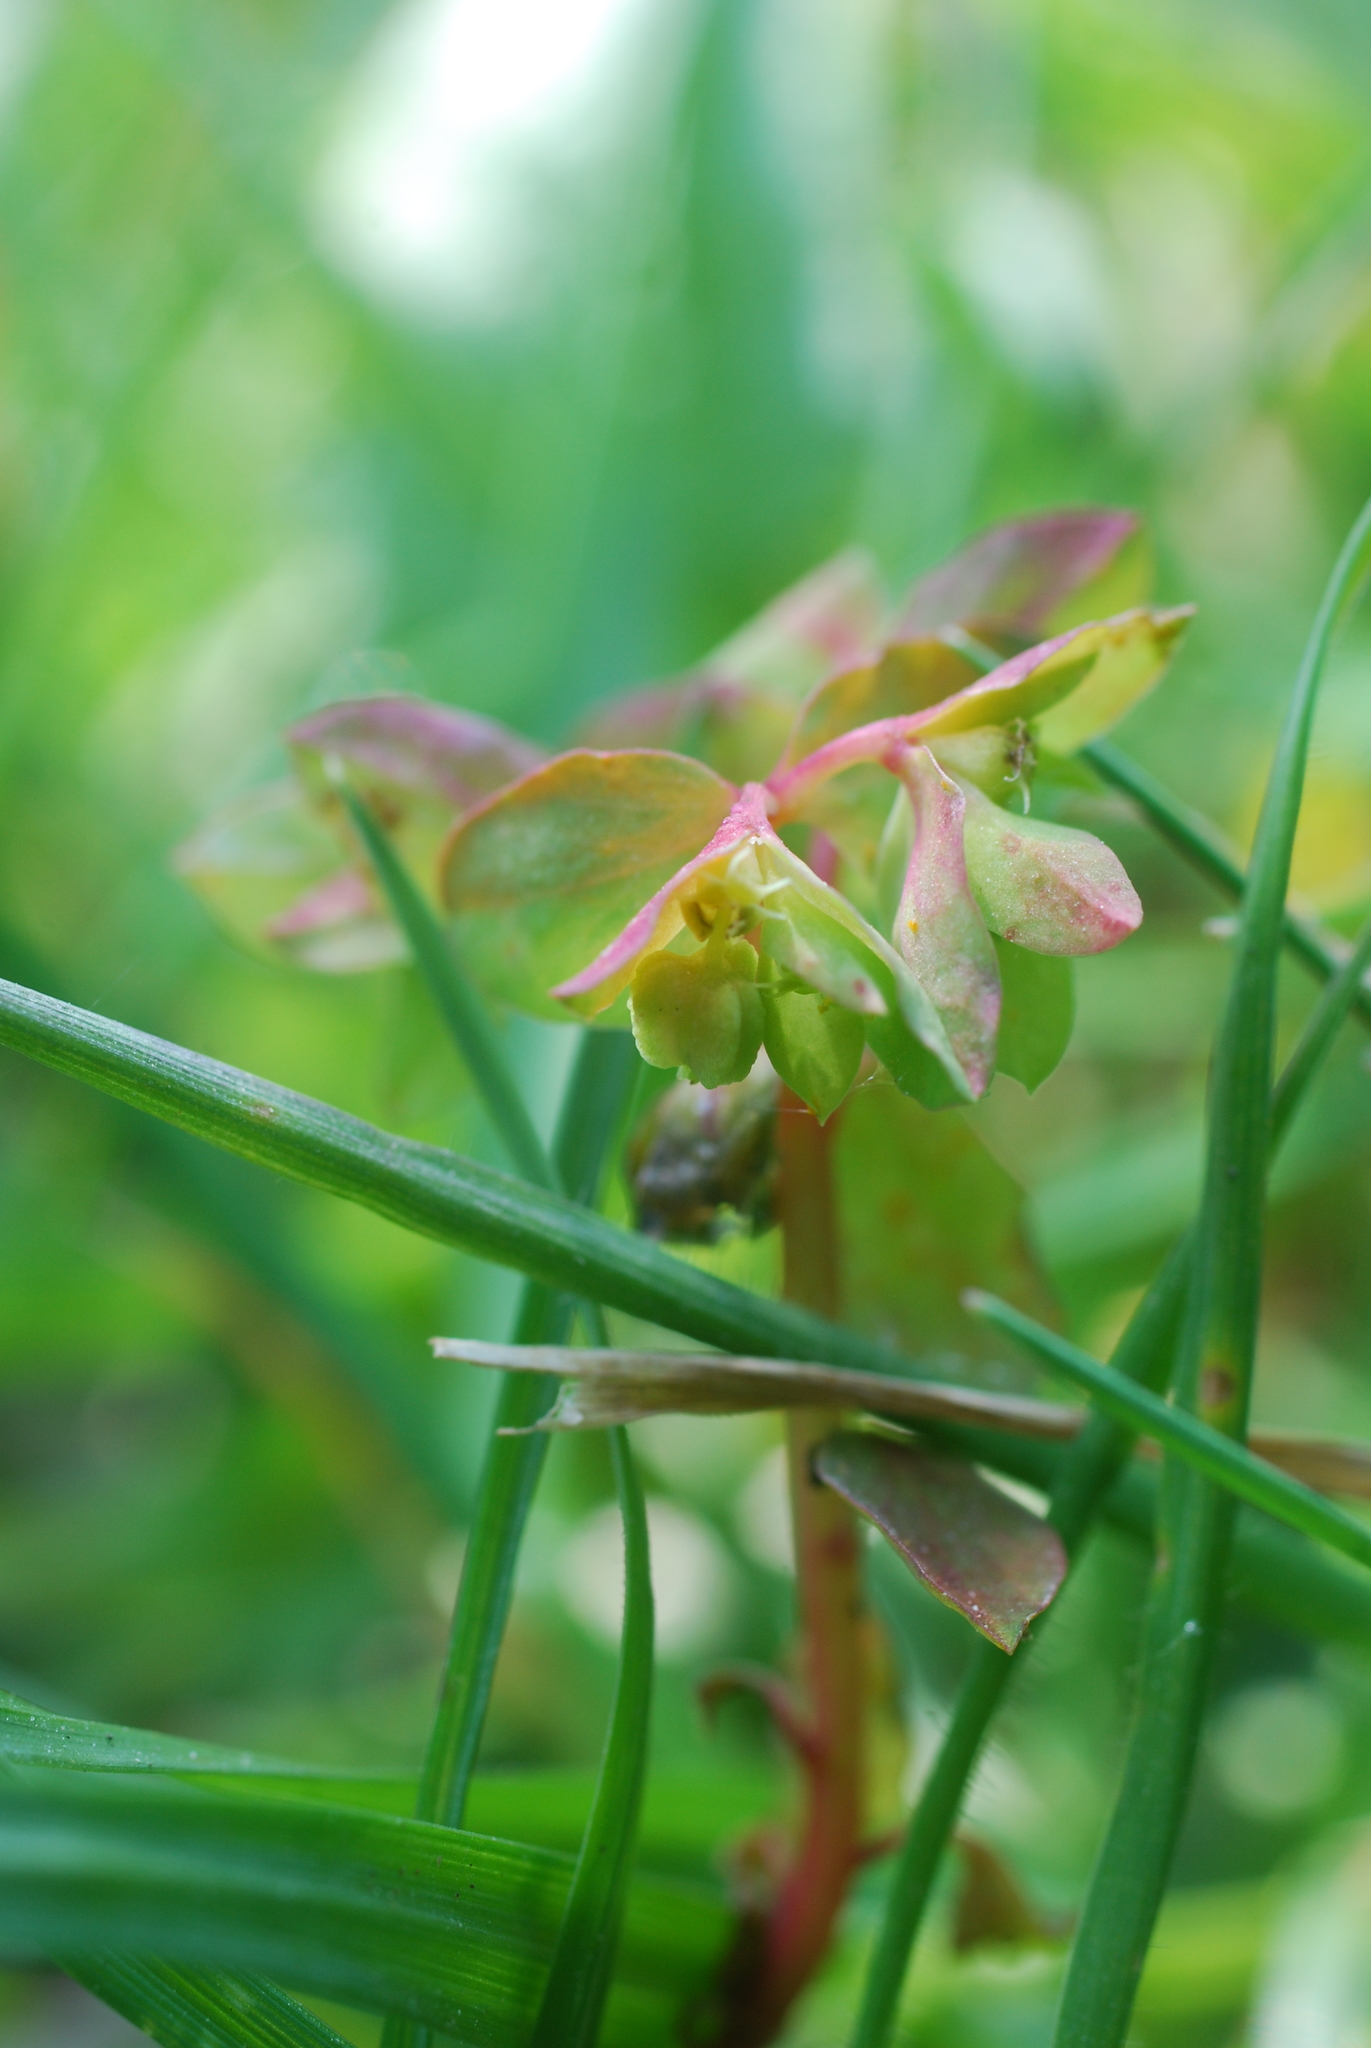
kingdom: Plantae
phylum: Tracheophyta
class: Magnoliopsida
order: Malpighiales
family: Euphorbiaceae
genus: Euphorbia
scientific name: Euphorbia peplus
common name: Petty spurge
